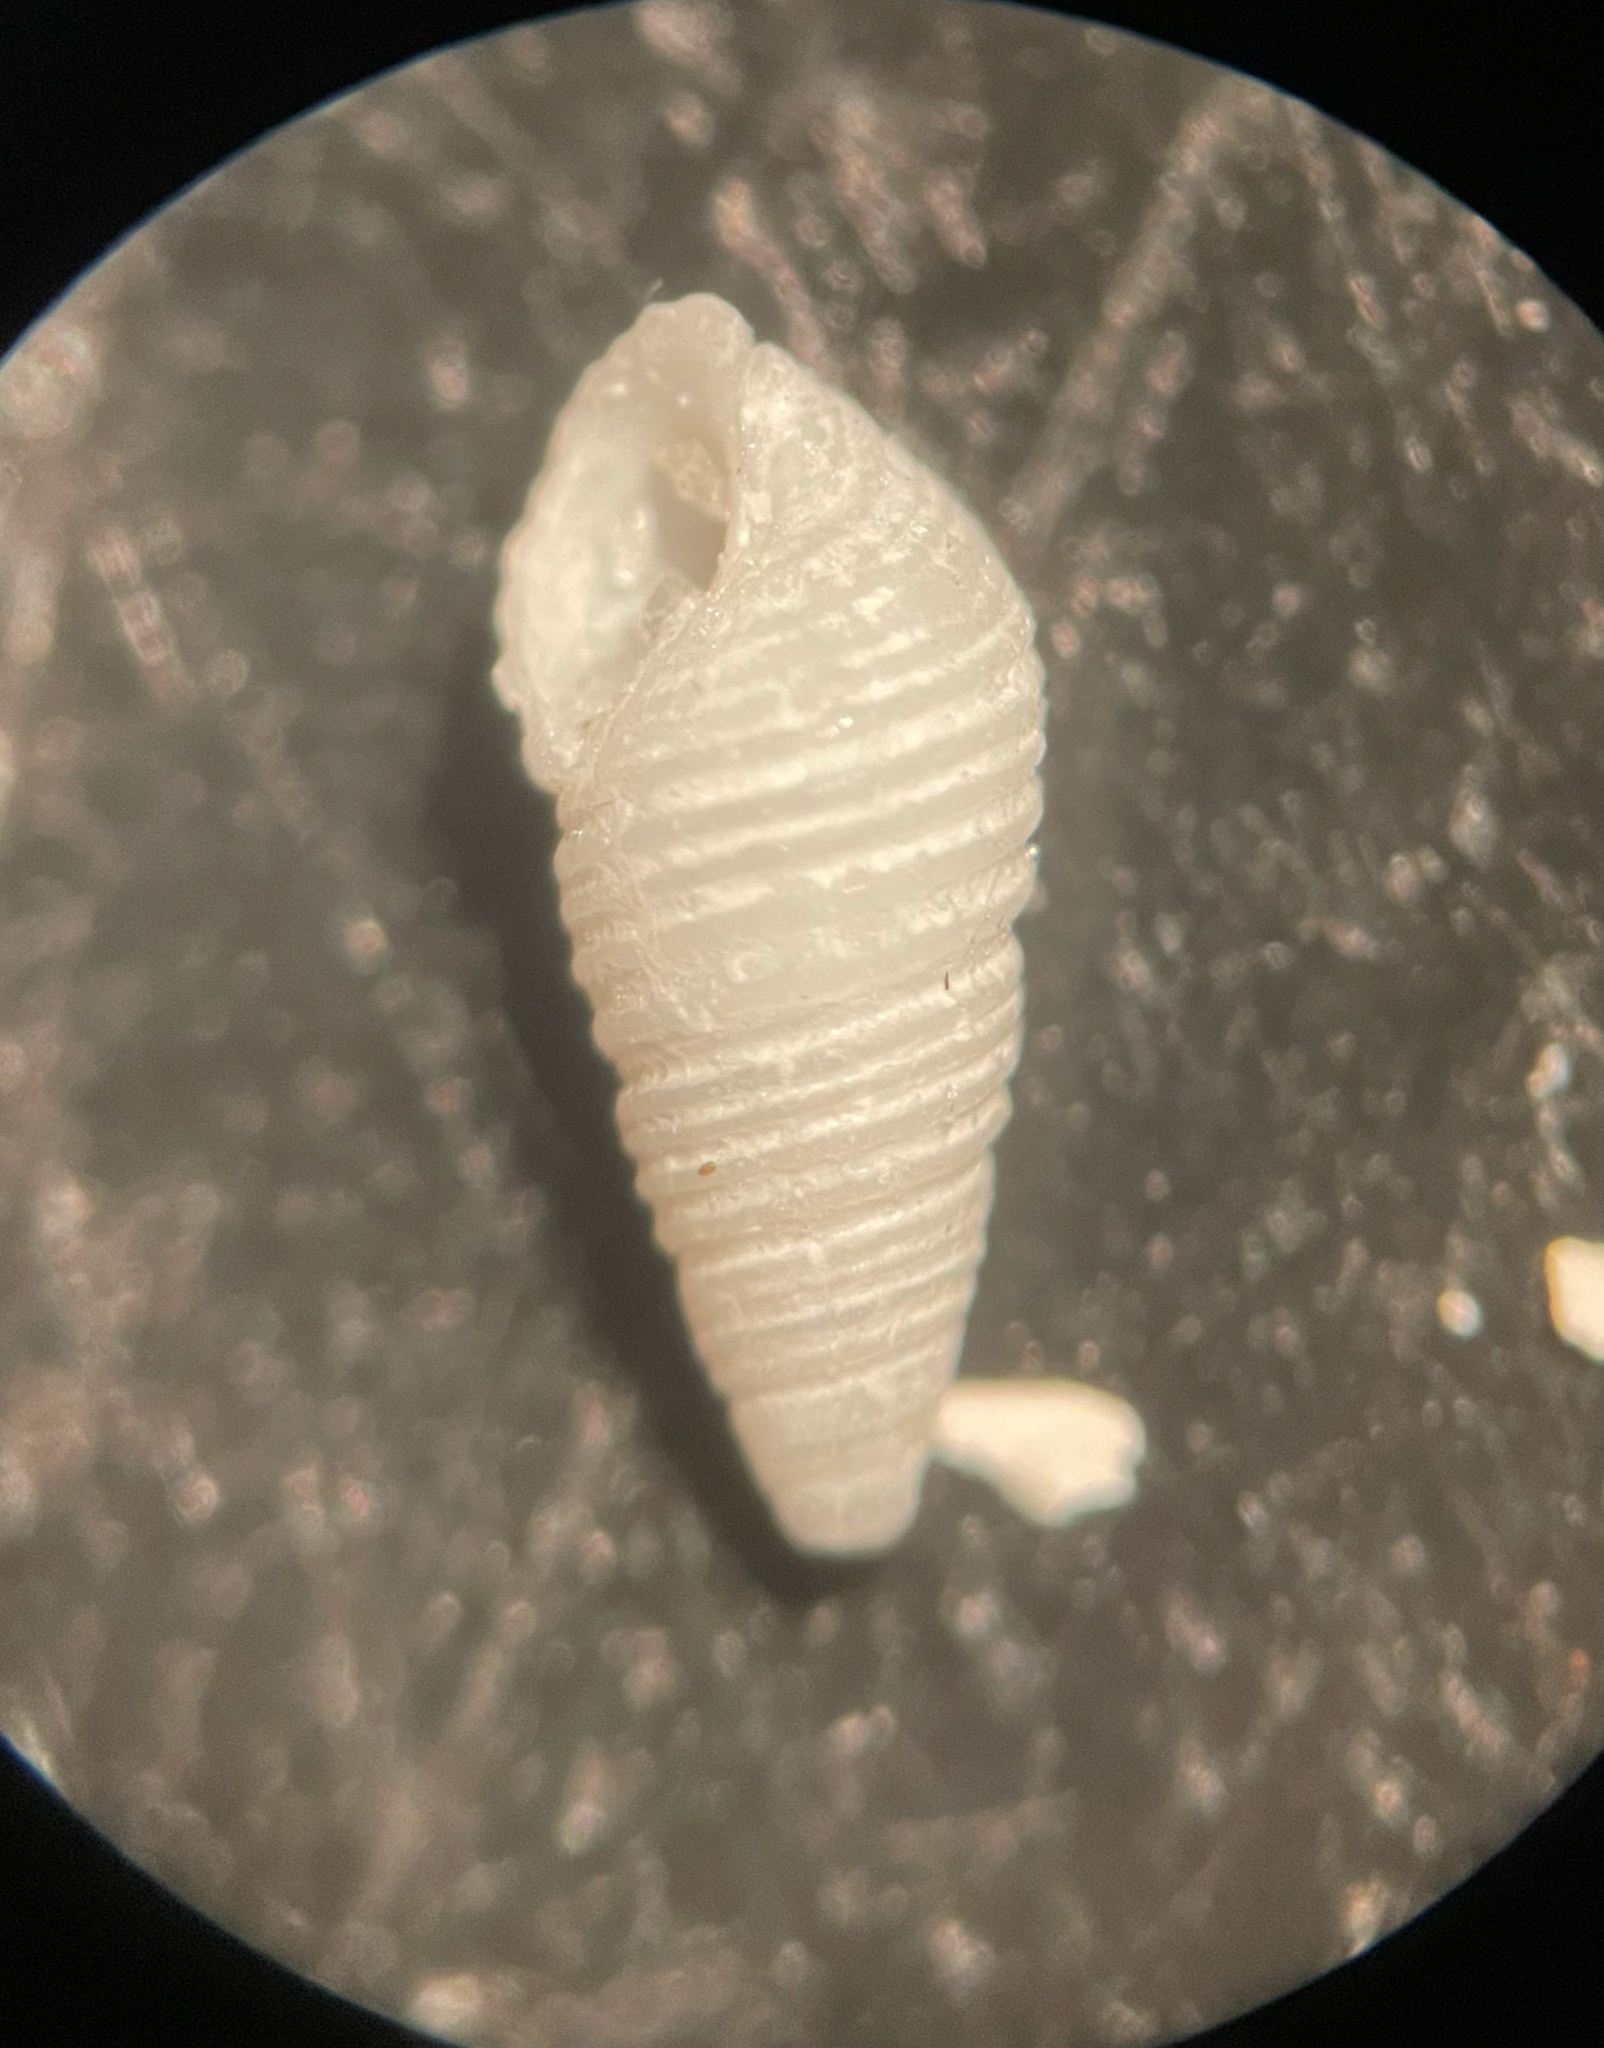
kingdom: Animalia
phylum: Mollusca
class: Gastropoda
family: Pyramidellidae
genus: Boonea
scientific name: Boonea impressa
